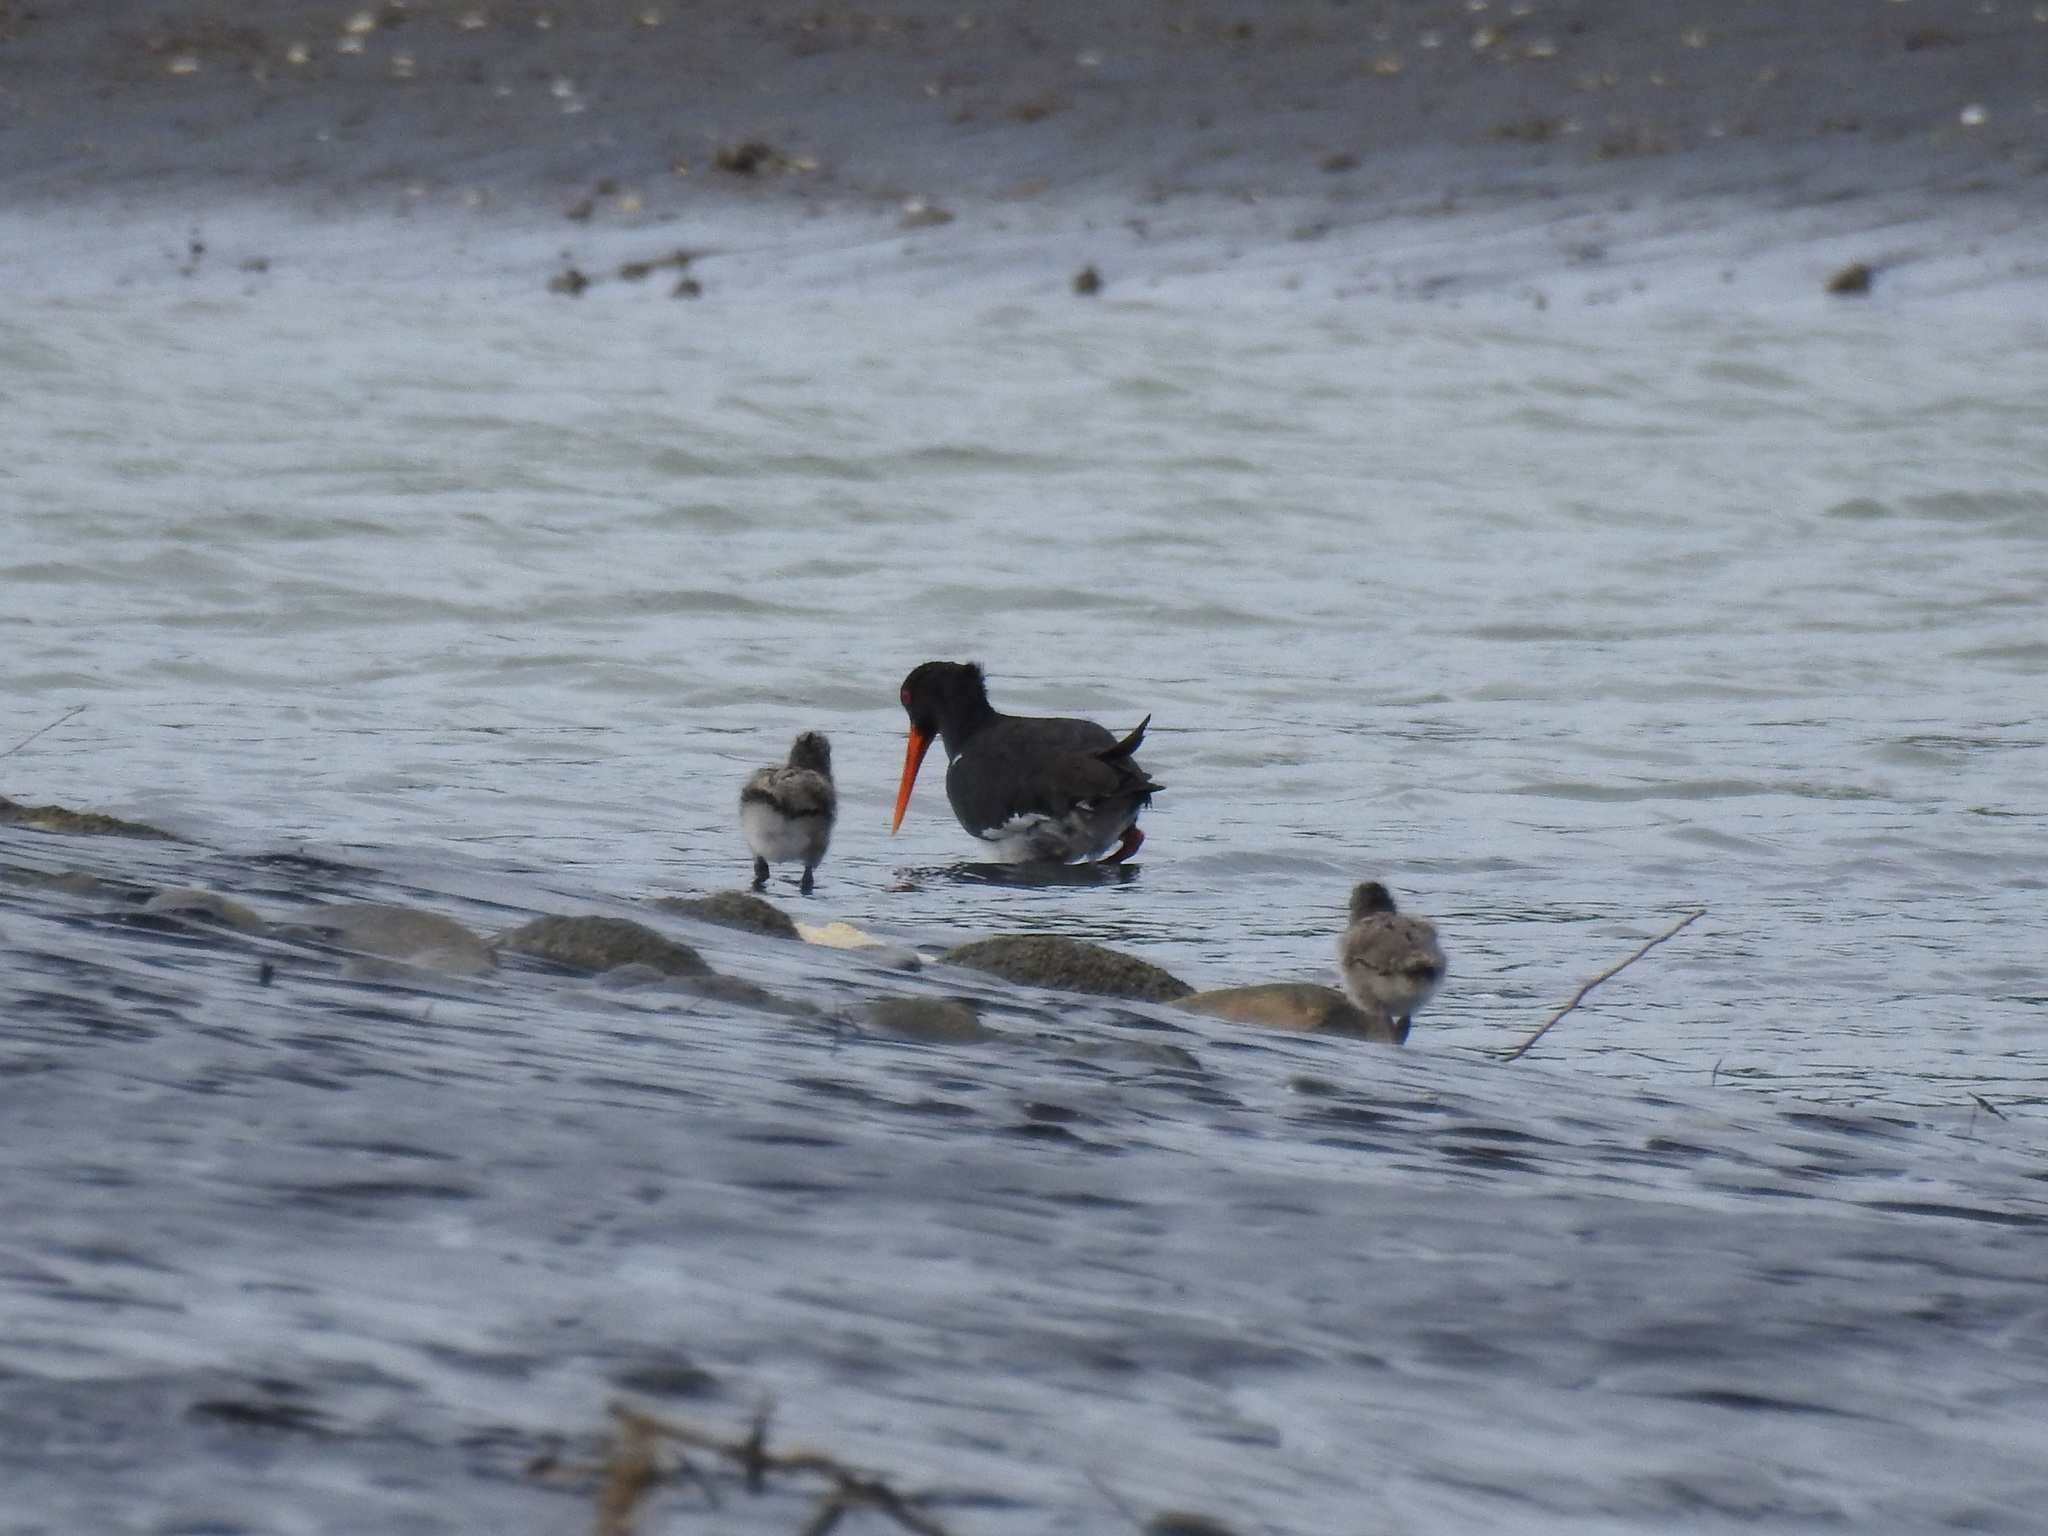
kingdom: Animalia
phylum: Chordata
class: Aves
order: Charadriiformes
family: Haematopodidae
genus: Haematopus
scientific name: Haematopus unicolor
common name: Variable oystercatcher
